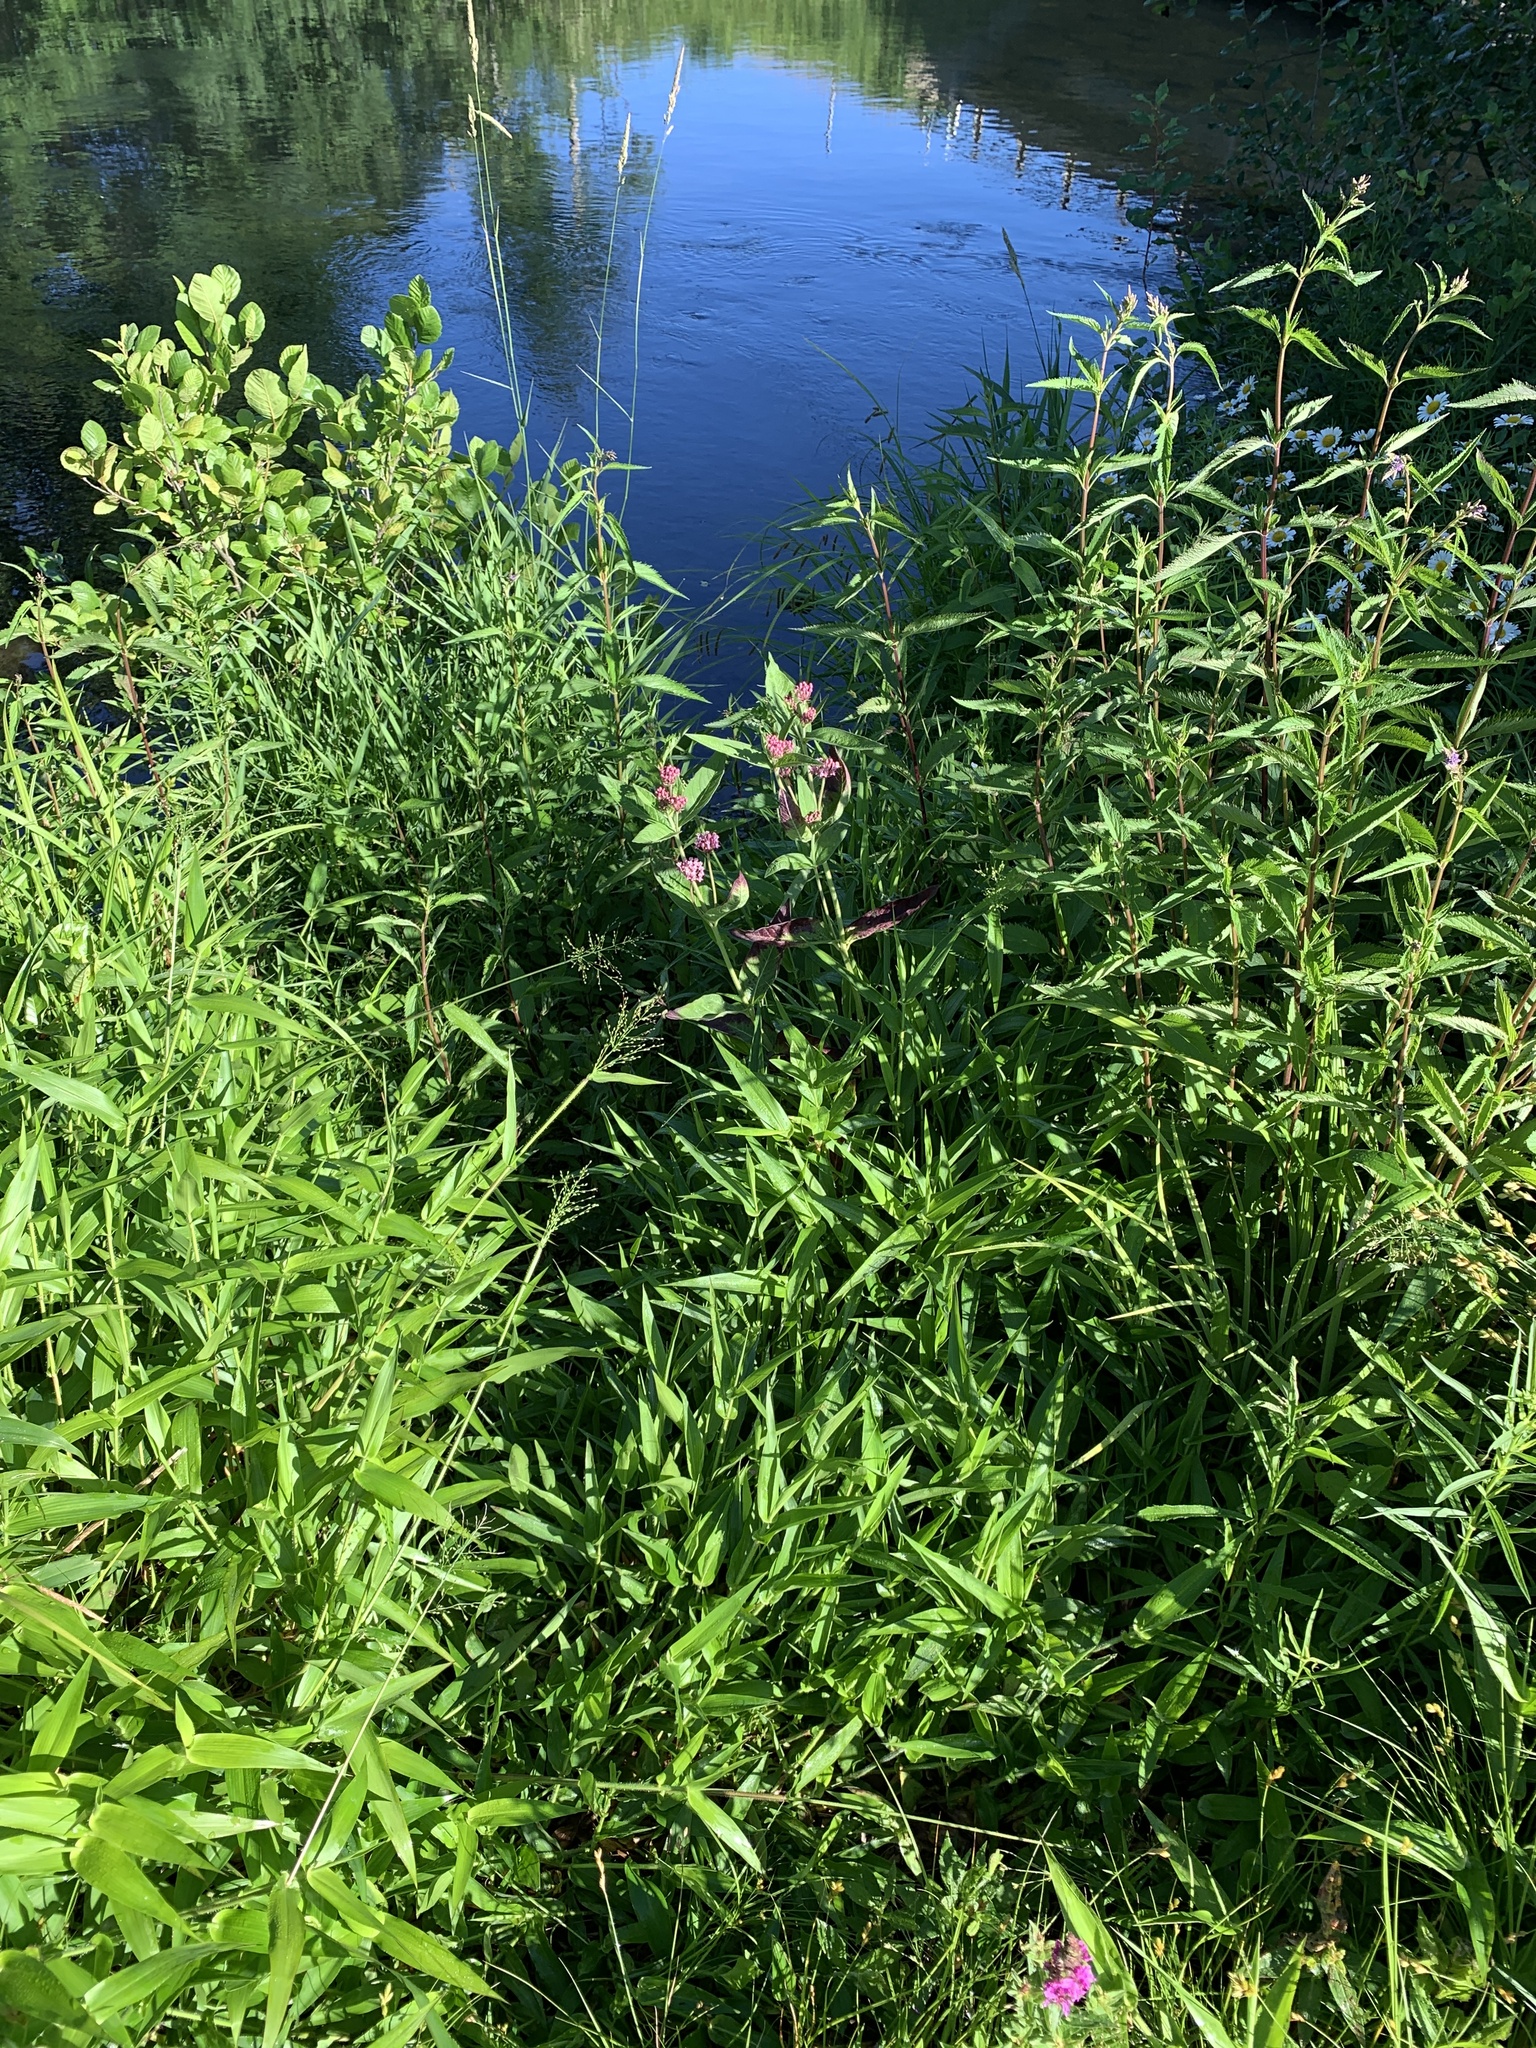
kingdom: Plantae
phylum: Tracheophyta
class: Magnoliopsida
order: Gentianales
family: Apocynaceae
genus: Asclepias
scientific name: Asclepias incarnata
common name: Swamp milkweed
